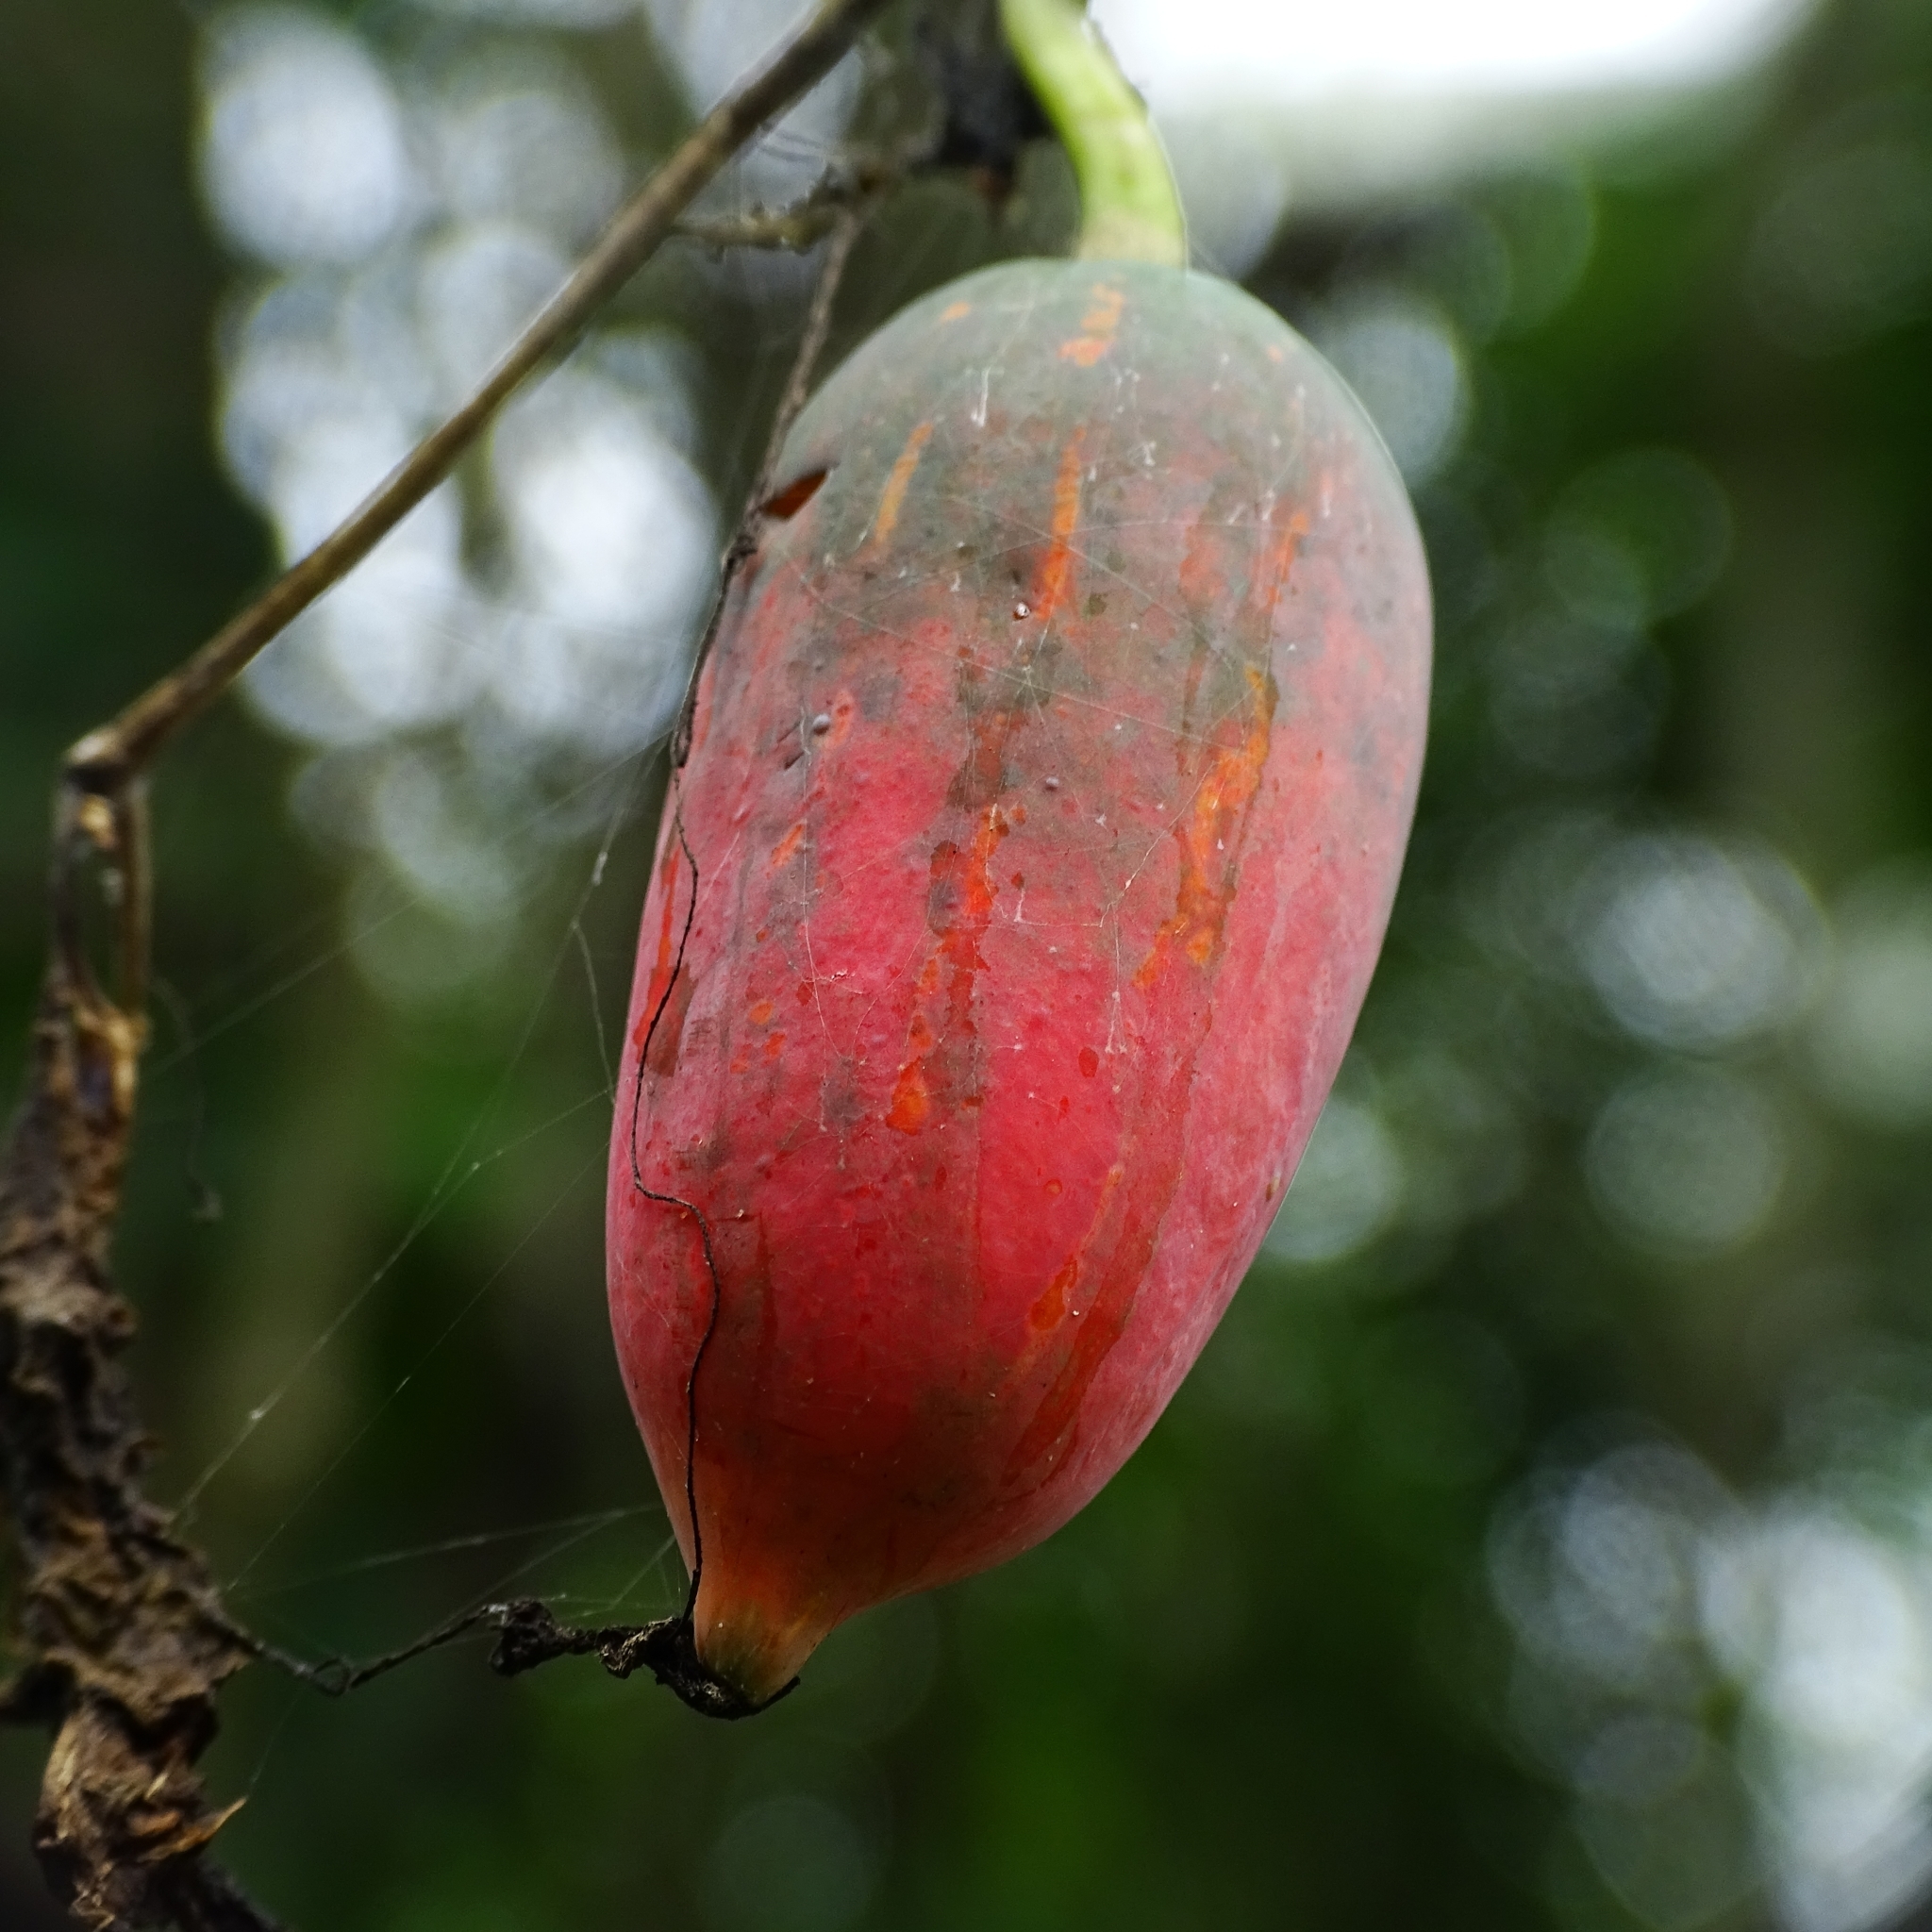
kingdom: Plantae
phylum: Tracheophyta
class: Magnoliopsida
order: Cucurbitales
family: Cucurbitaceae
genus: Coccinia
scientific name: Coccinia grandis
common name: Ivy gourd
